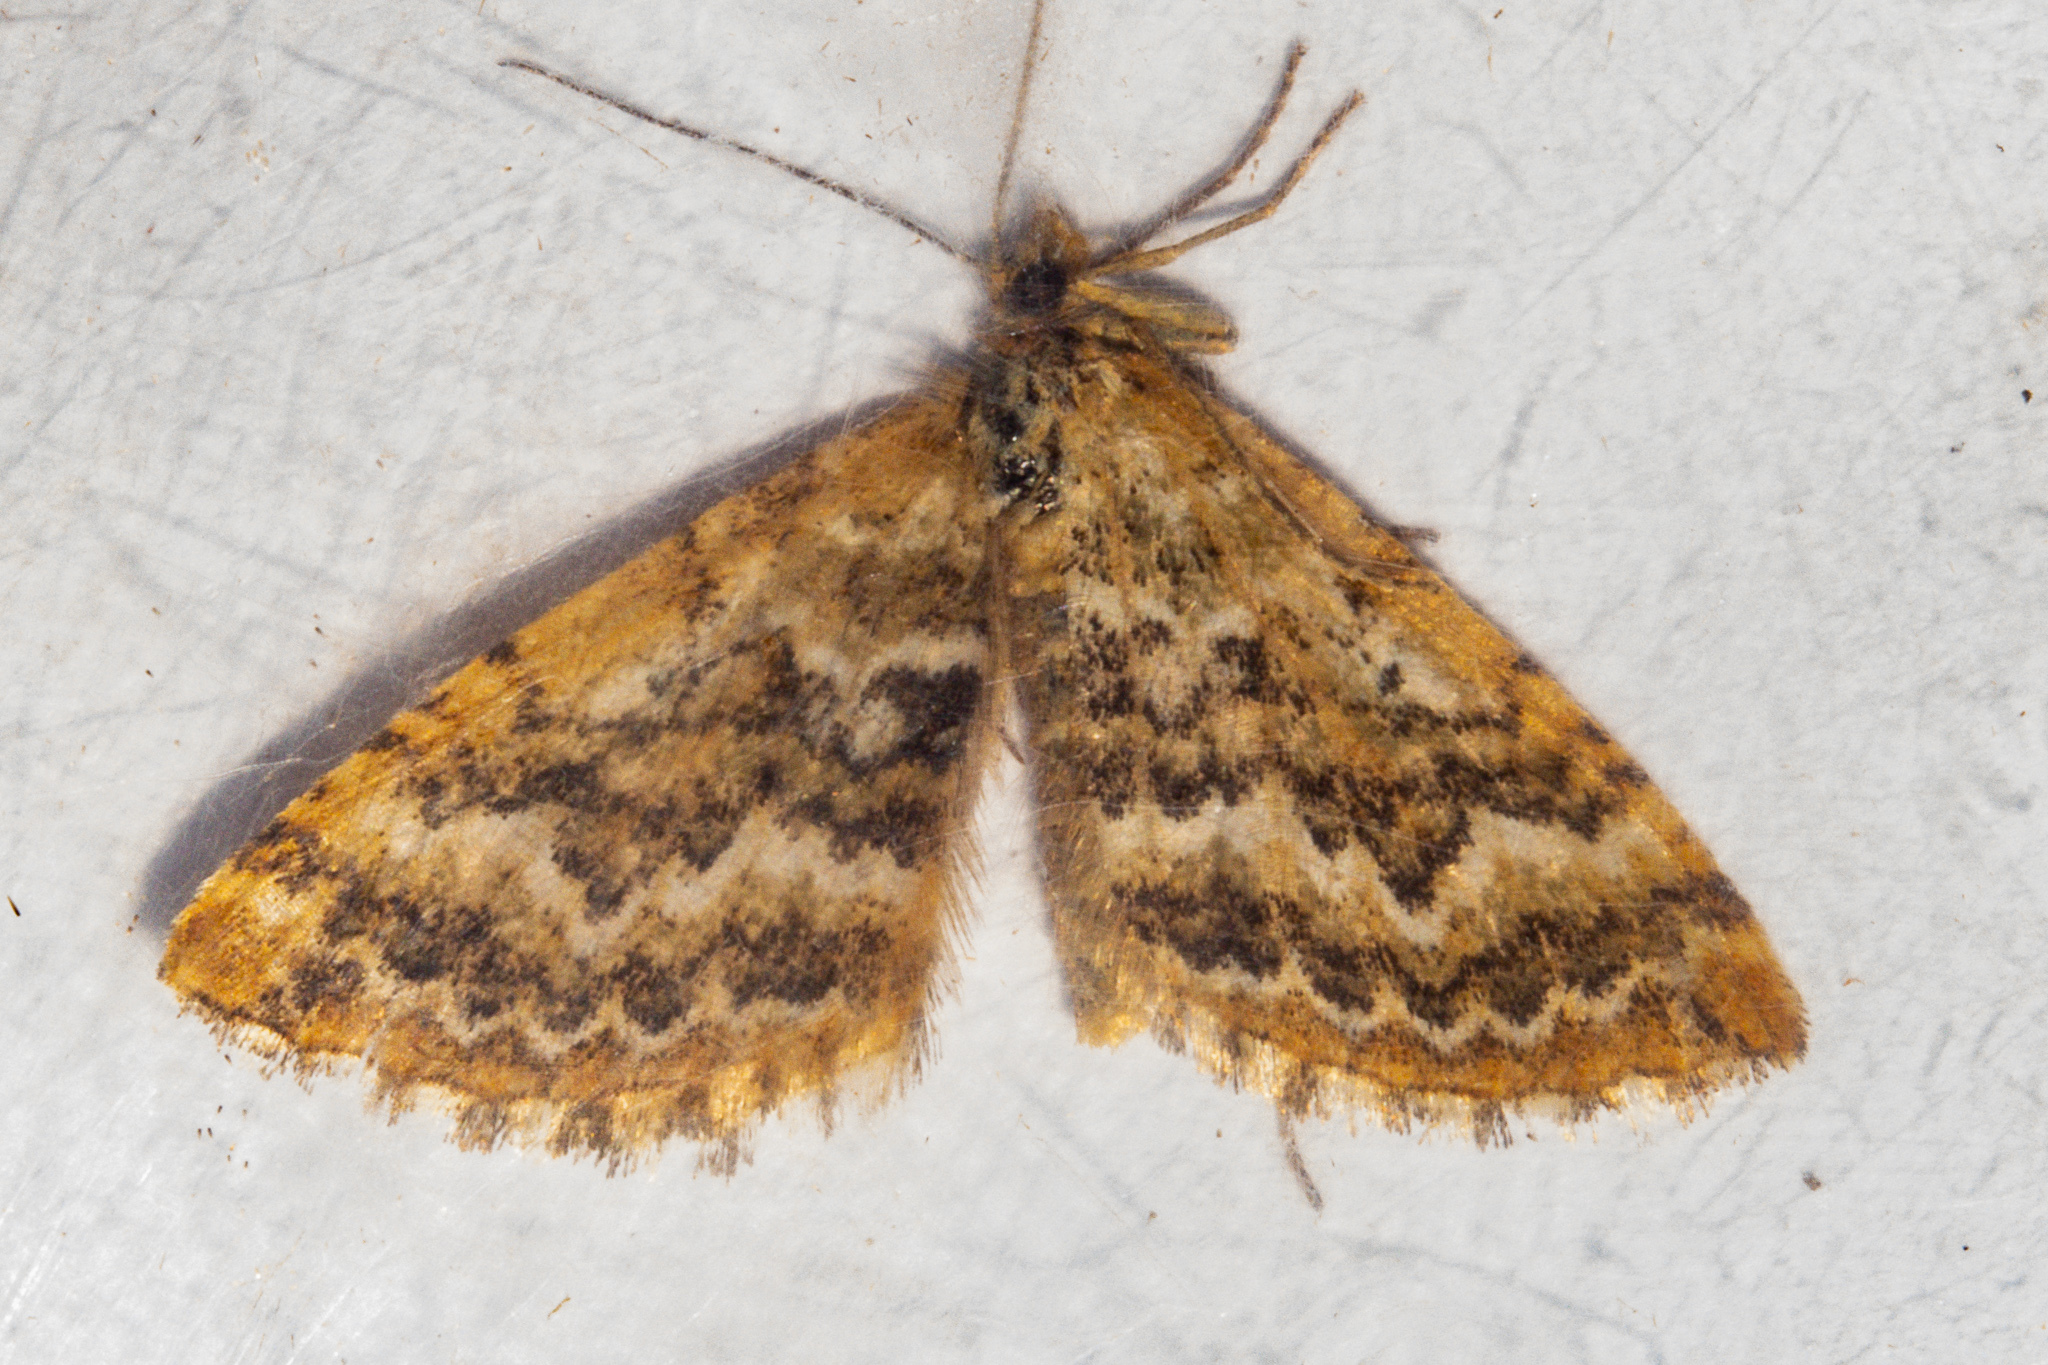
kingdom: Animalia
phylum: Arthropoda
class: Insecta
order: Lepidoptera
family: Geometridae
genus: Asaphodes
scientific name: Asaphodes stephanitis
